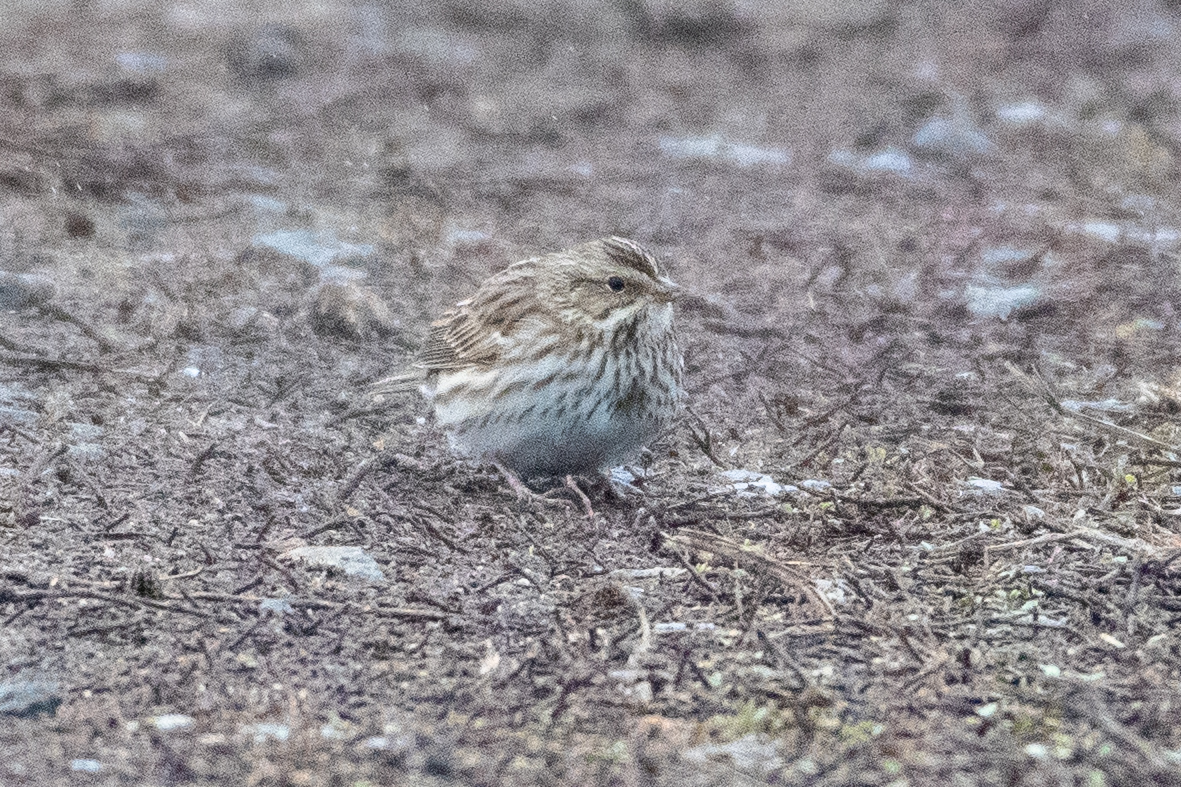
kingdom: Animalia
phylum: Chordata
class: Aves
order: Passeriformes
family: Passerellidae
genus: Passerculus
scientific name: Passerculus sandwichensis
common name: Savannah sparrow
